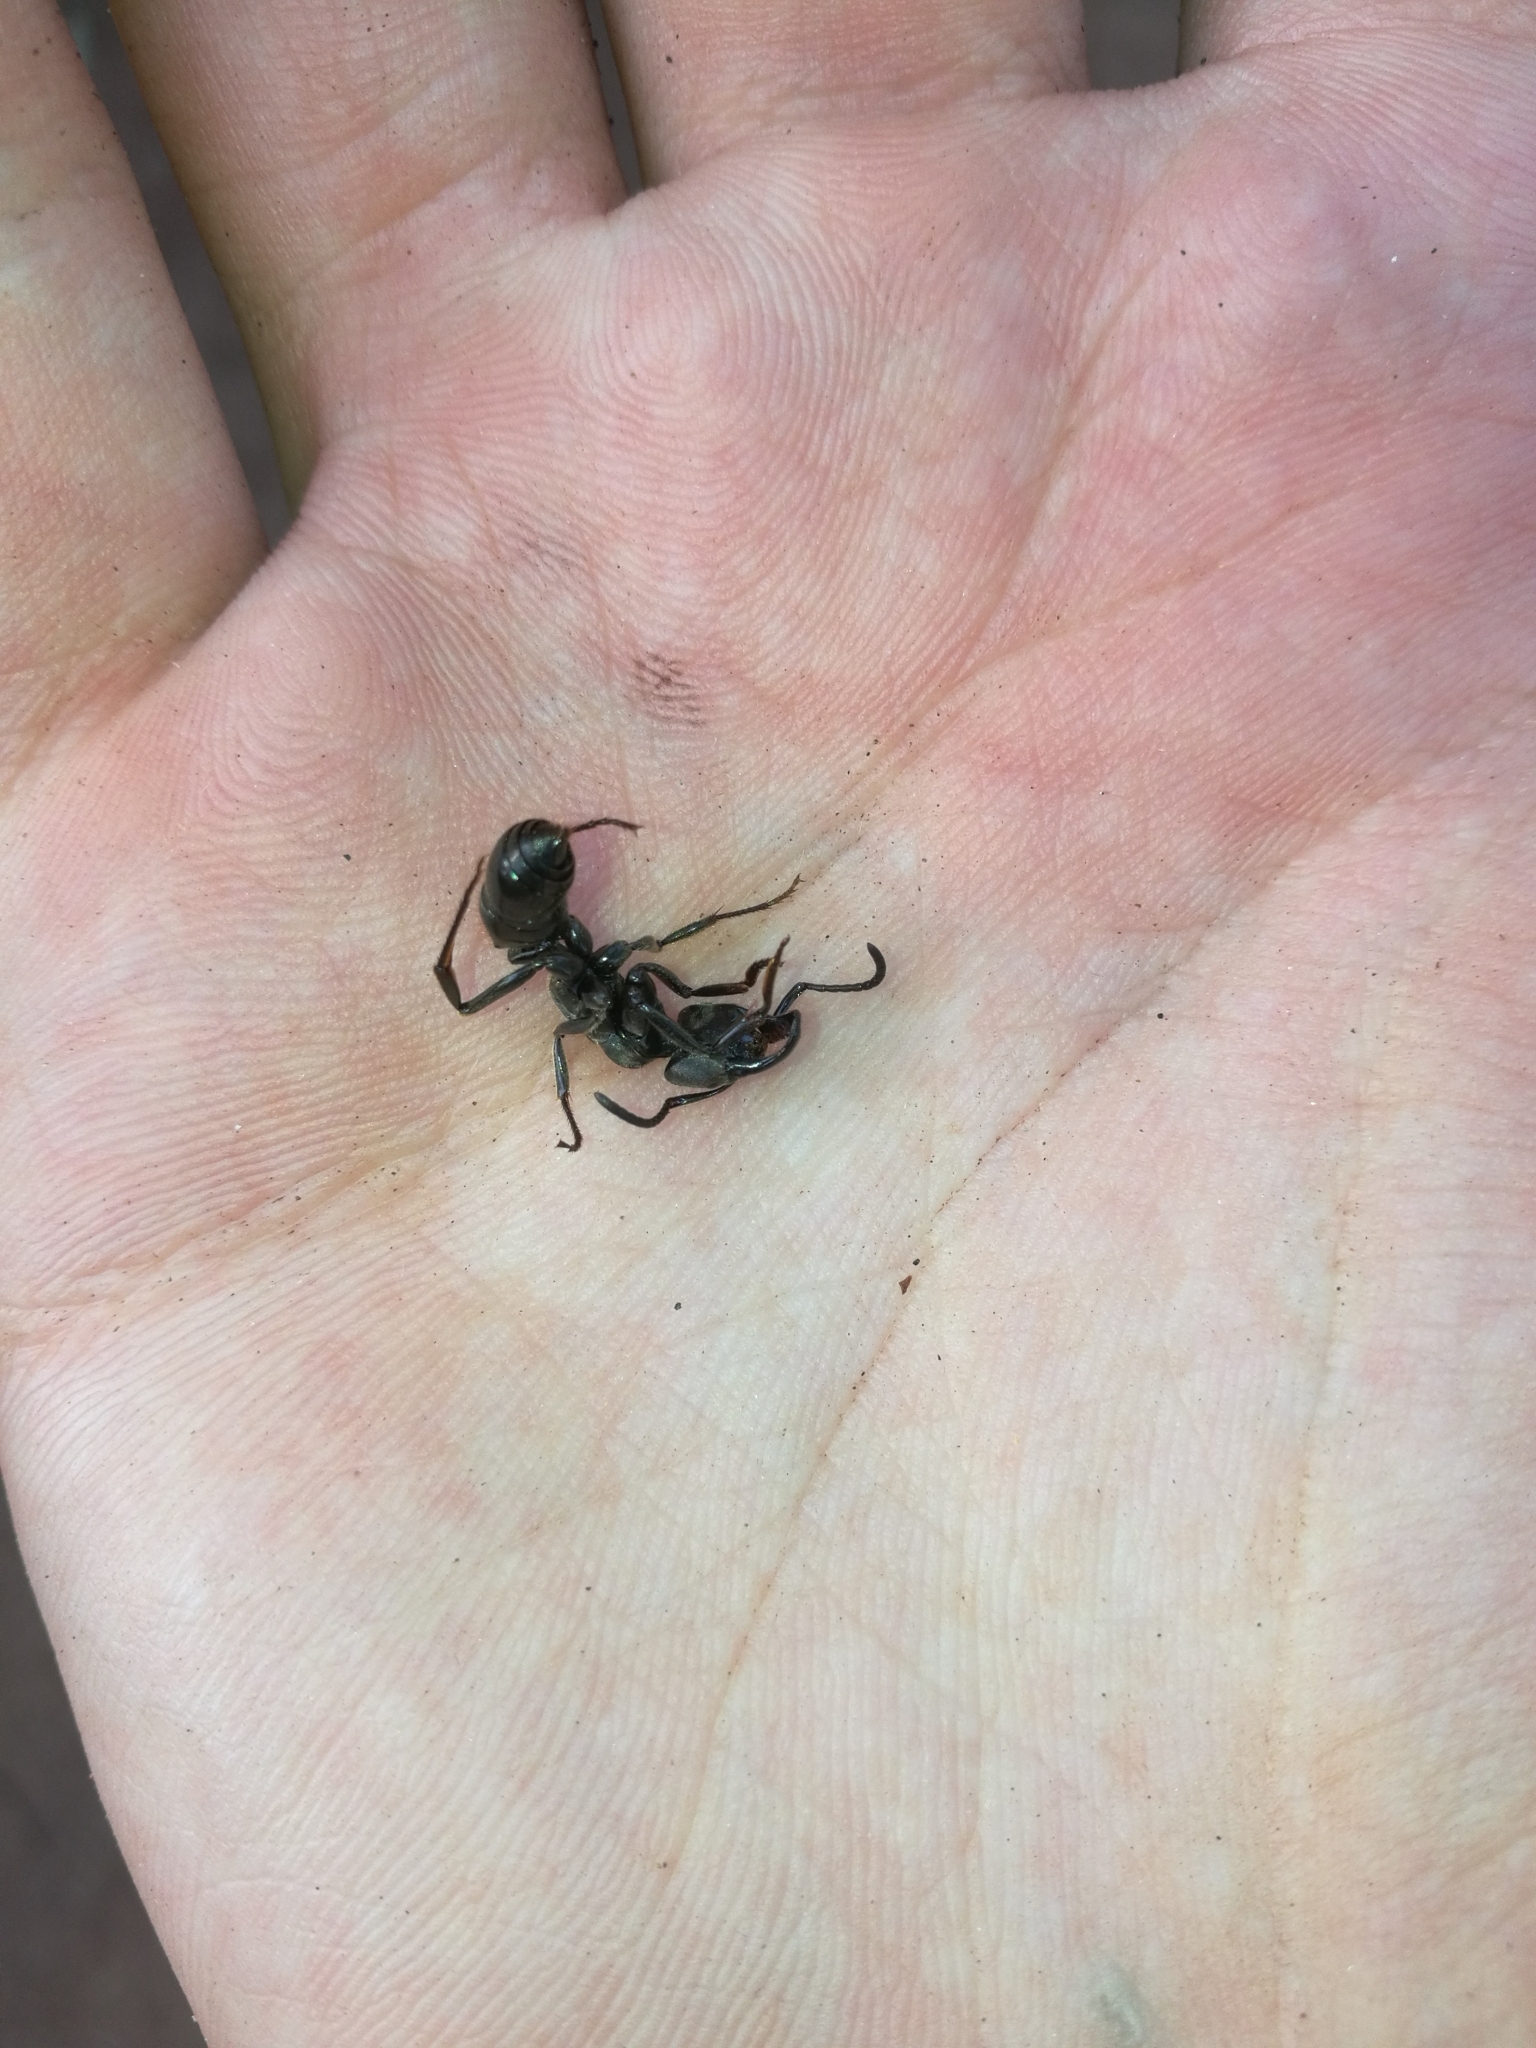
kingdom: Animalia
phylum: Arthropoda
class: Insecta
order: Hymenoptera
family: Formicidae
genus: Paltothyreus
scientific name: Paltothyreus tarsatus
